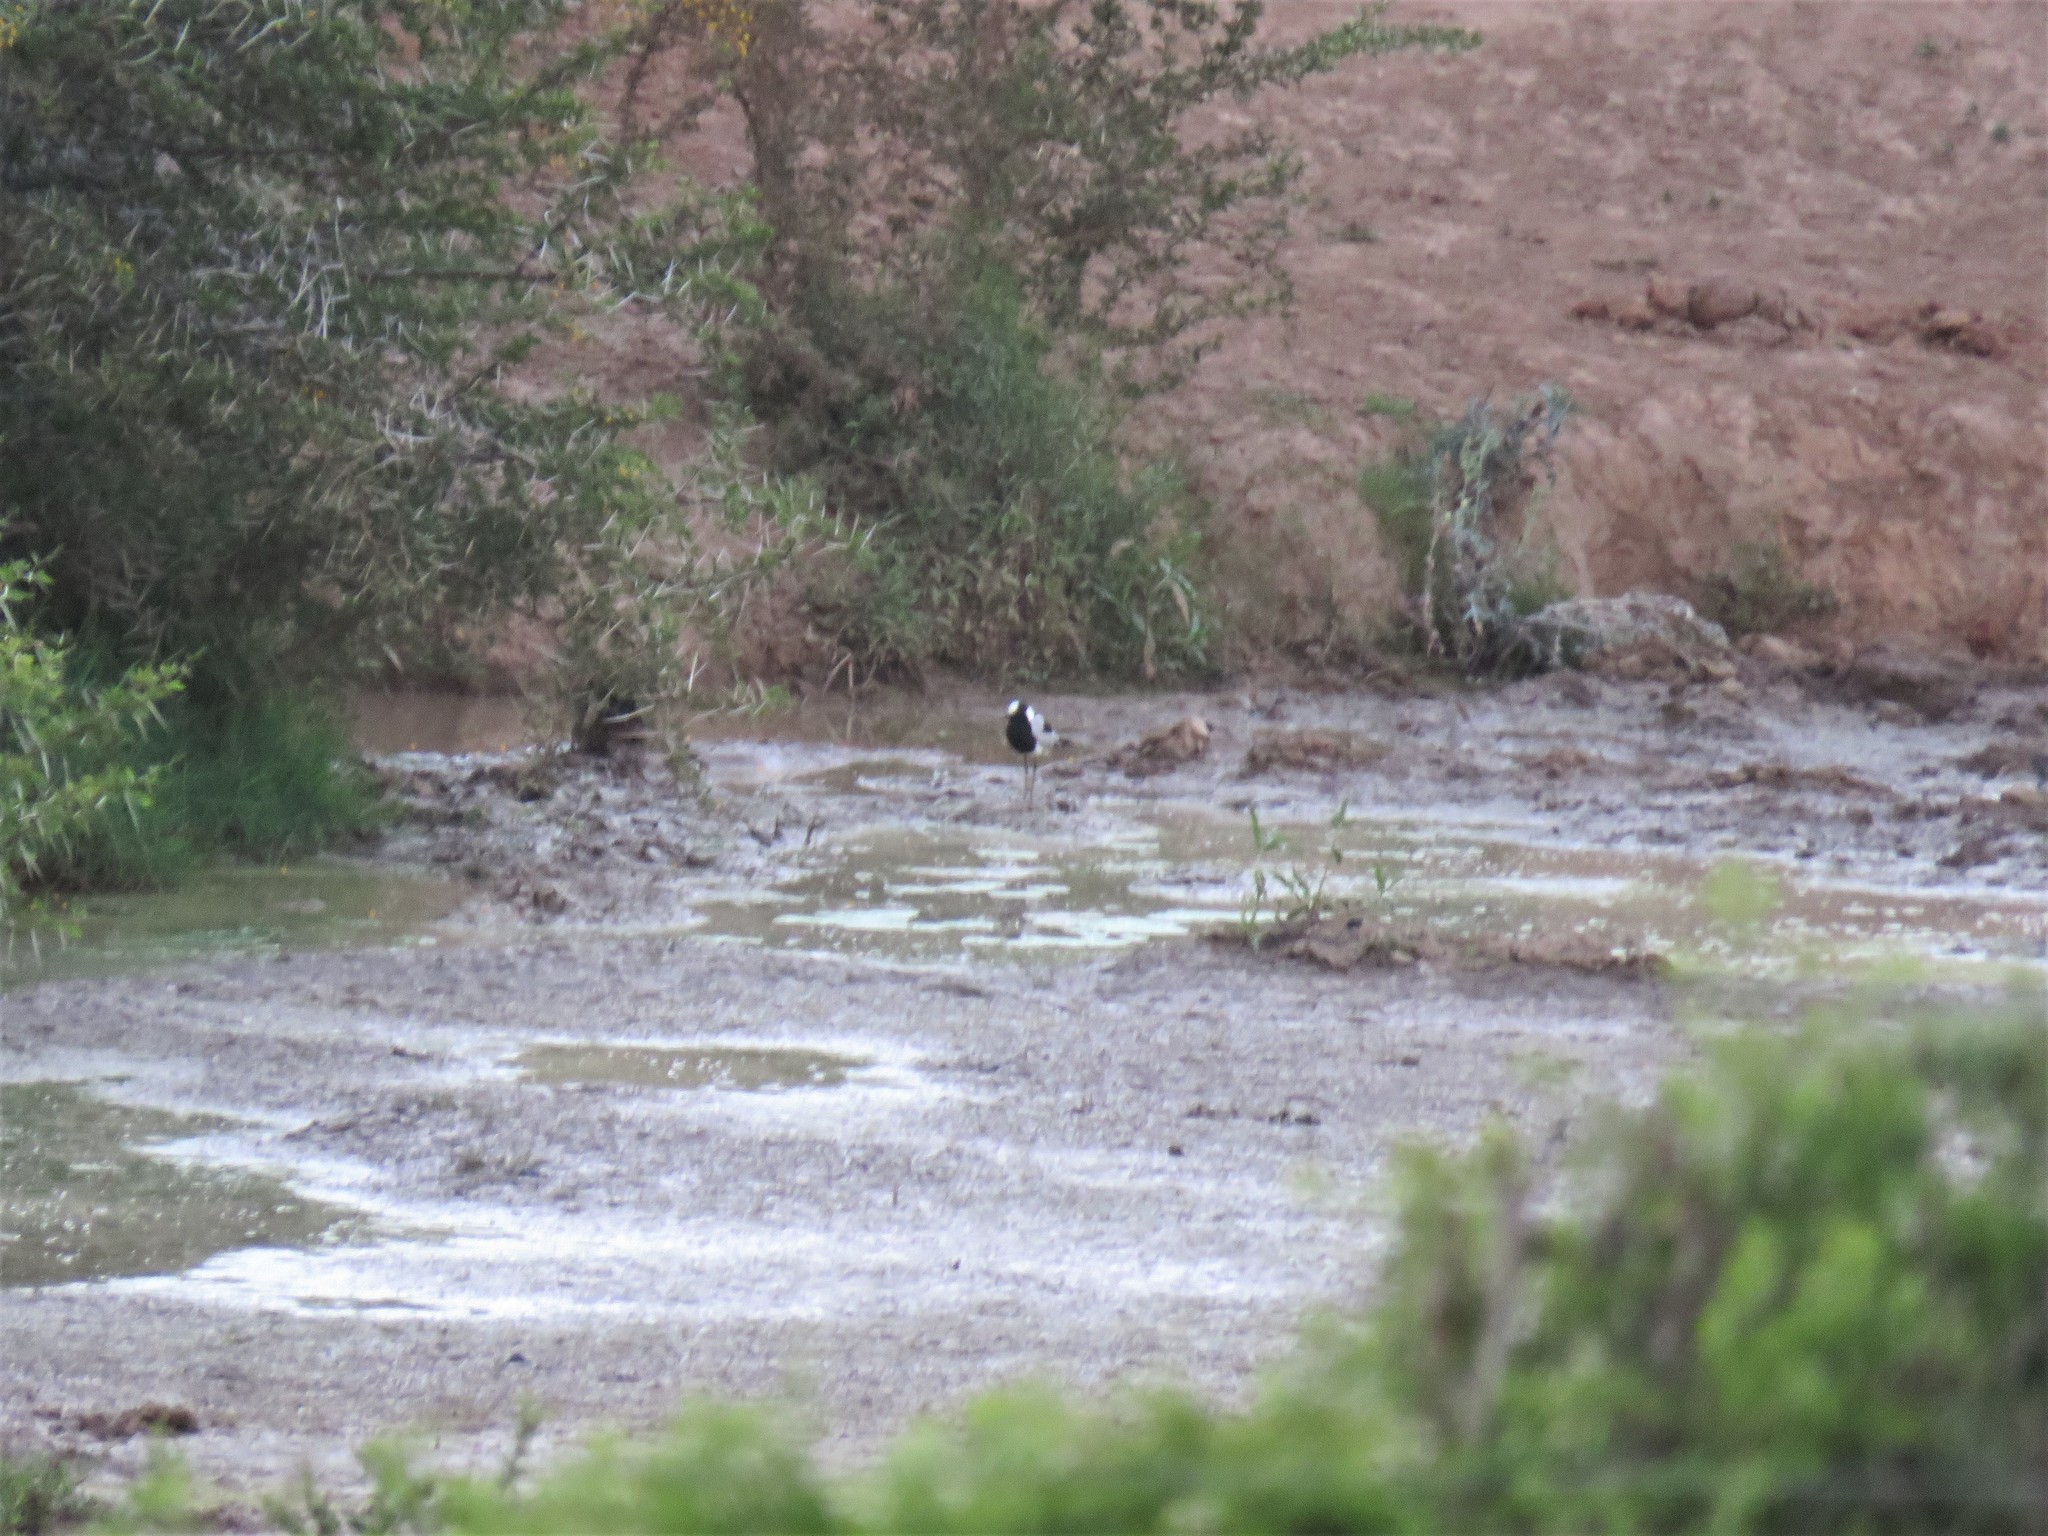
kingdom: Animalia
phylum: Chordata
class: Aves
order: Charadriiformes
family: Charadriidae
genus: Vanellus
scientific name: Vanellus armatus
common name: Blacksmith lapwing
